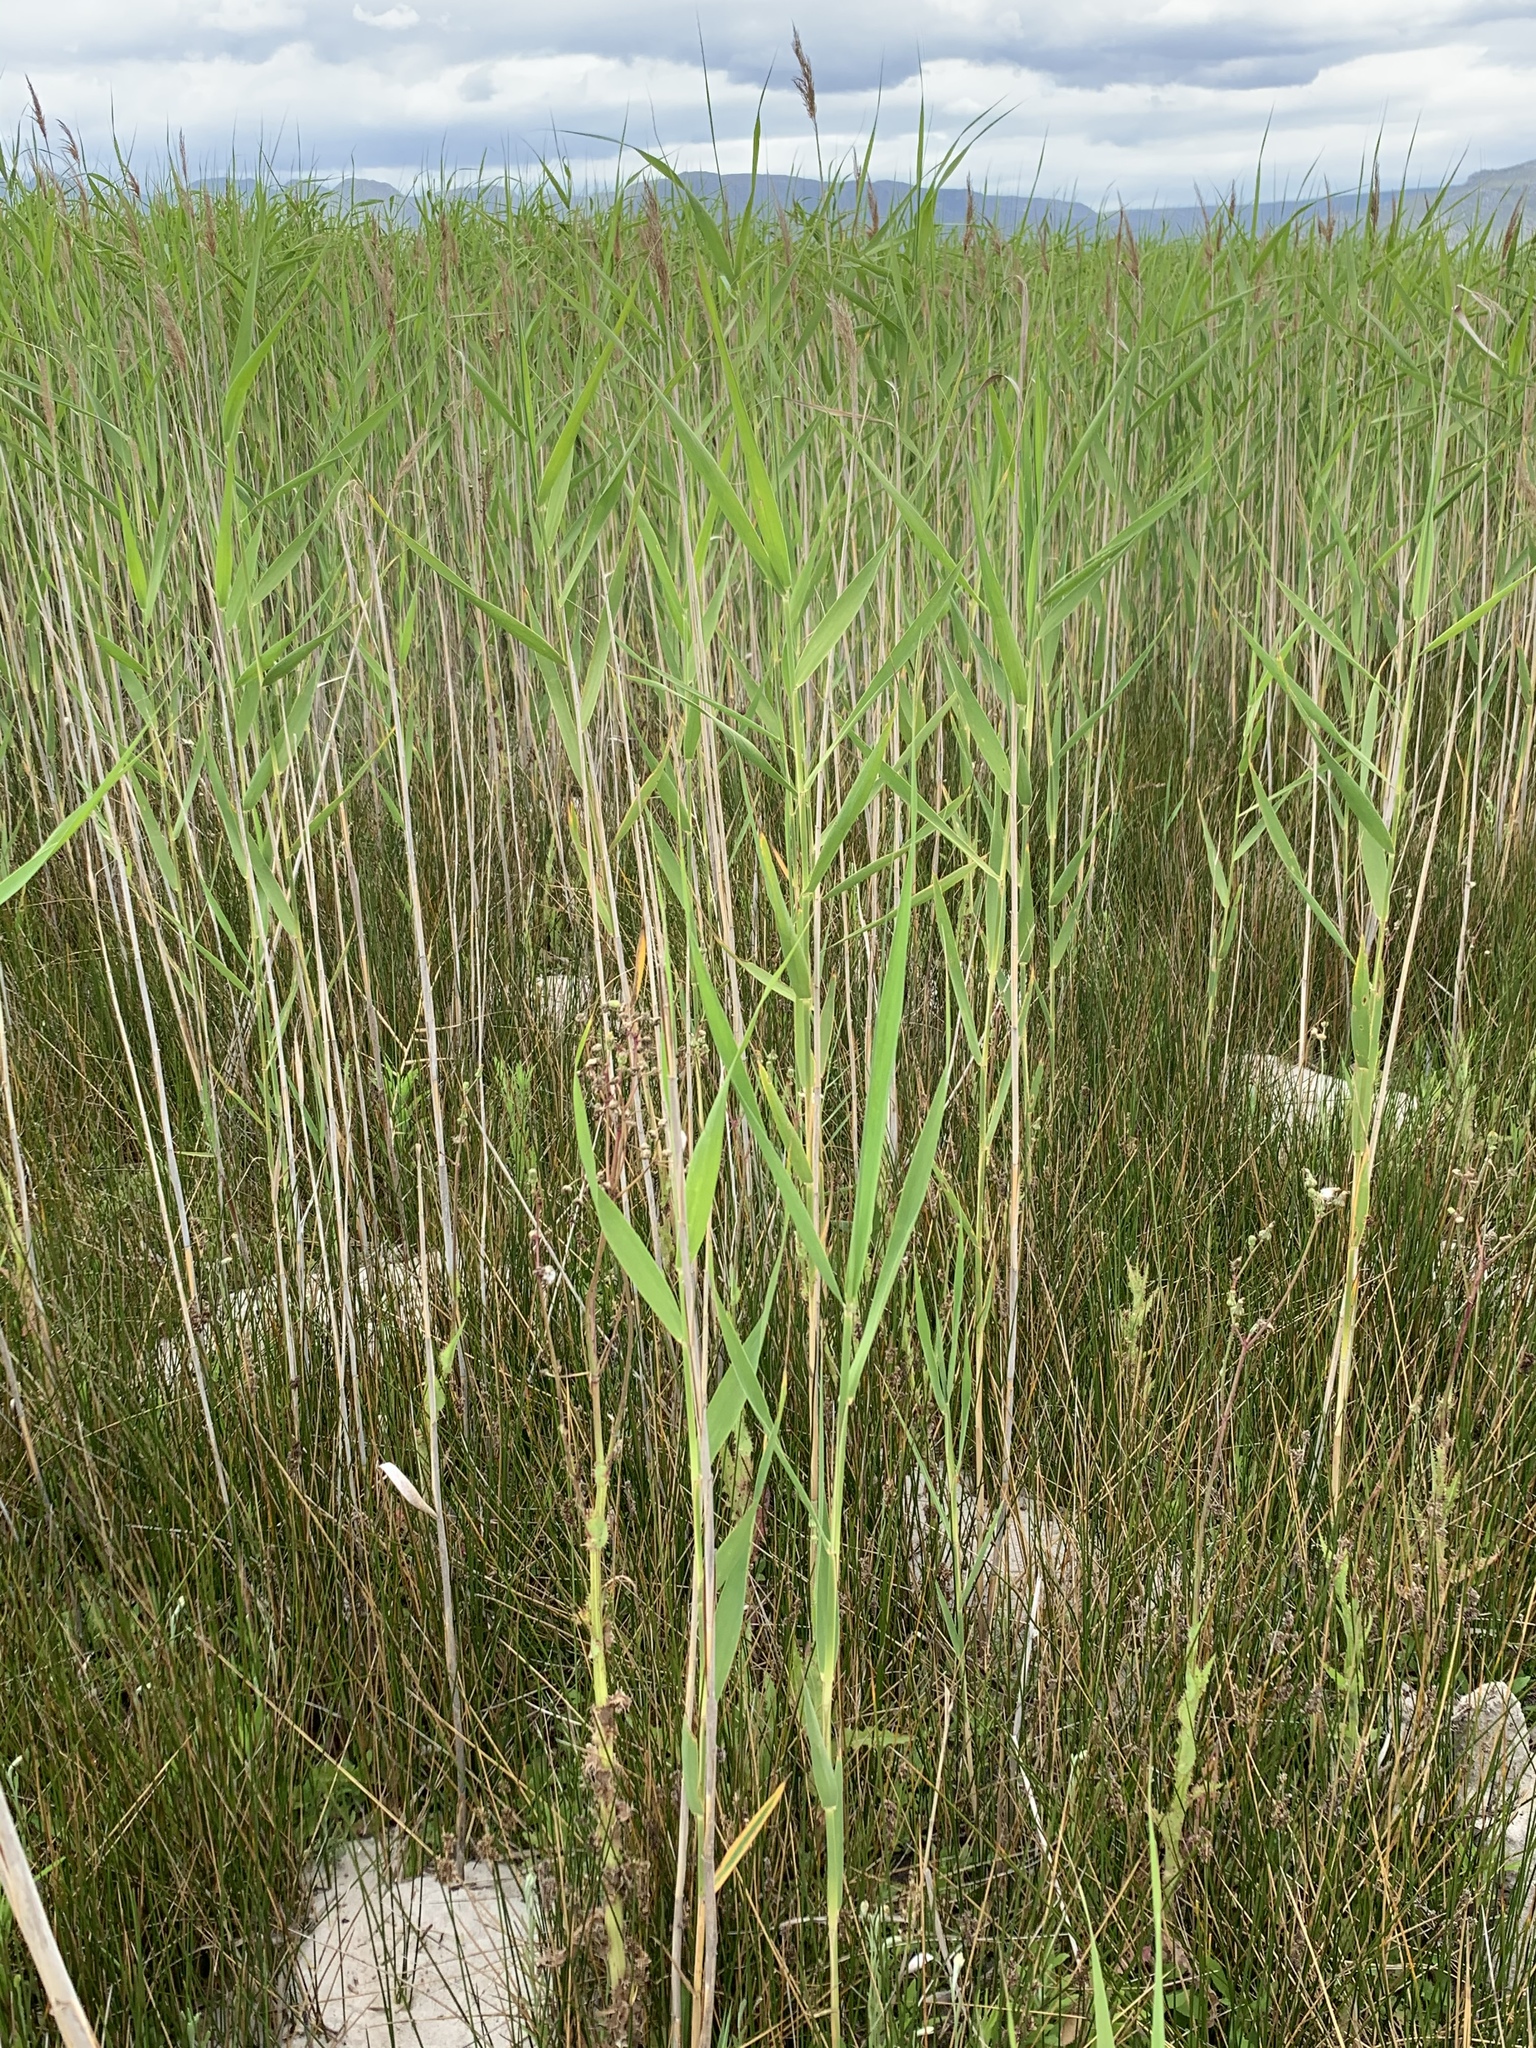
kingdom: Plantae
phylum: Tracheophyta
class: Liliopsida
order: Poales
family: Poaceae
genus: Phragmites
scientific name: Phragmites australis
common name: Common reed
